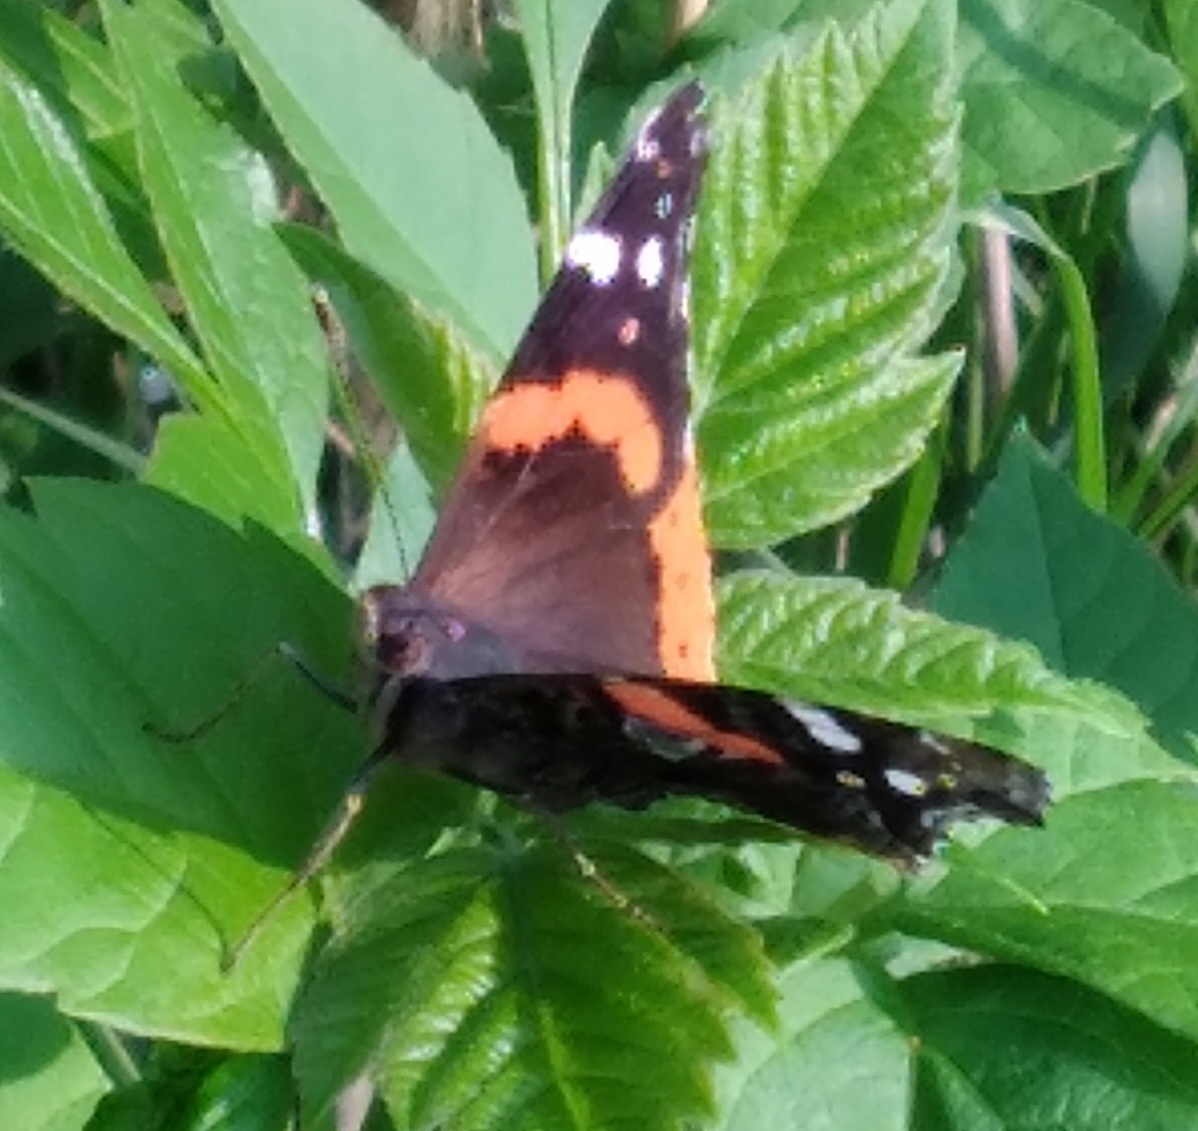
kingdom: Animalia
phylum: Arthropoda
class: Insecta
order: Lepidoptera
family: Nymphalidae
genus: Vanessa
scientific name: Vanessa atalanta
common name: Red admiral
